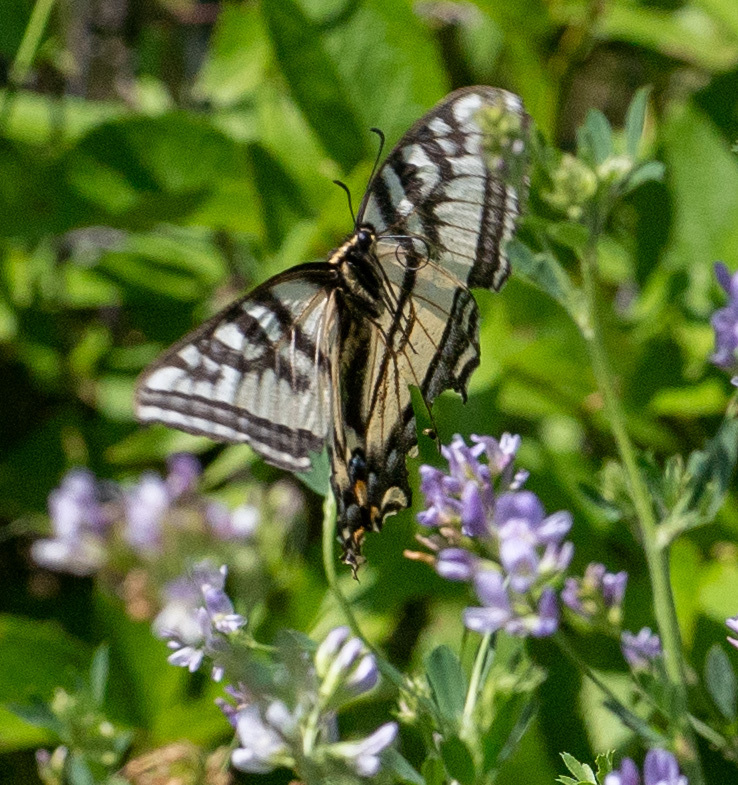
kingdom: Animalia
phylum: Arthropoda
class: Insecta
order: Lepidoptera
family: Papilionidae
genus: Papilio
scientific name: Papilio eurymedon
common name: Pale tiger swallowtail
